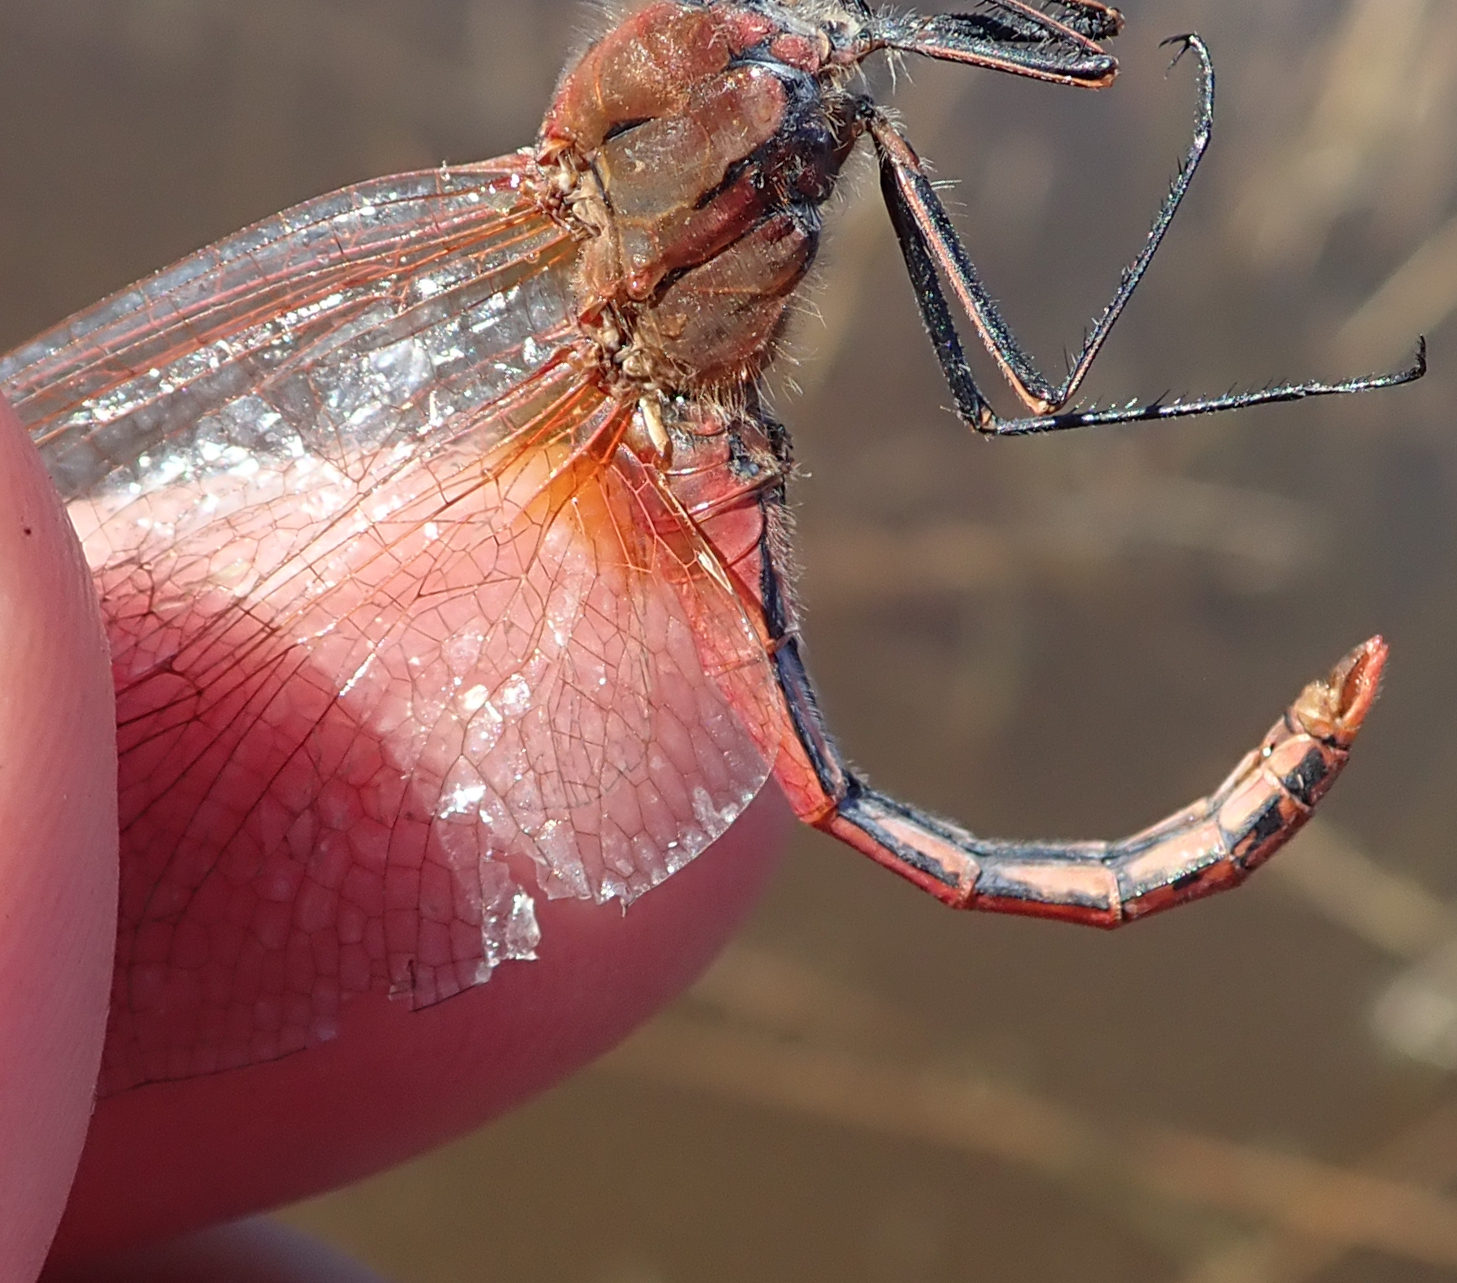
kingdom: Animalia
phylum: Arthropoda
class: Insecta
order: Odonata
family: Libellulidae
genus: Sympetrum
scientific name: Sympetrum fonscolombii
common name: Red-veined darter
